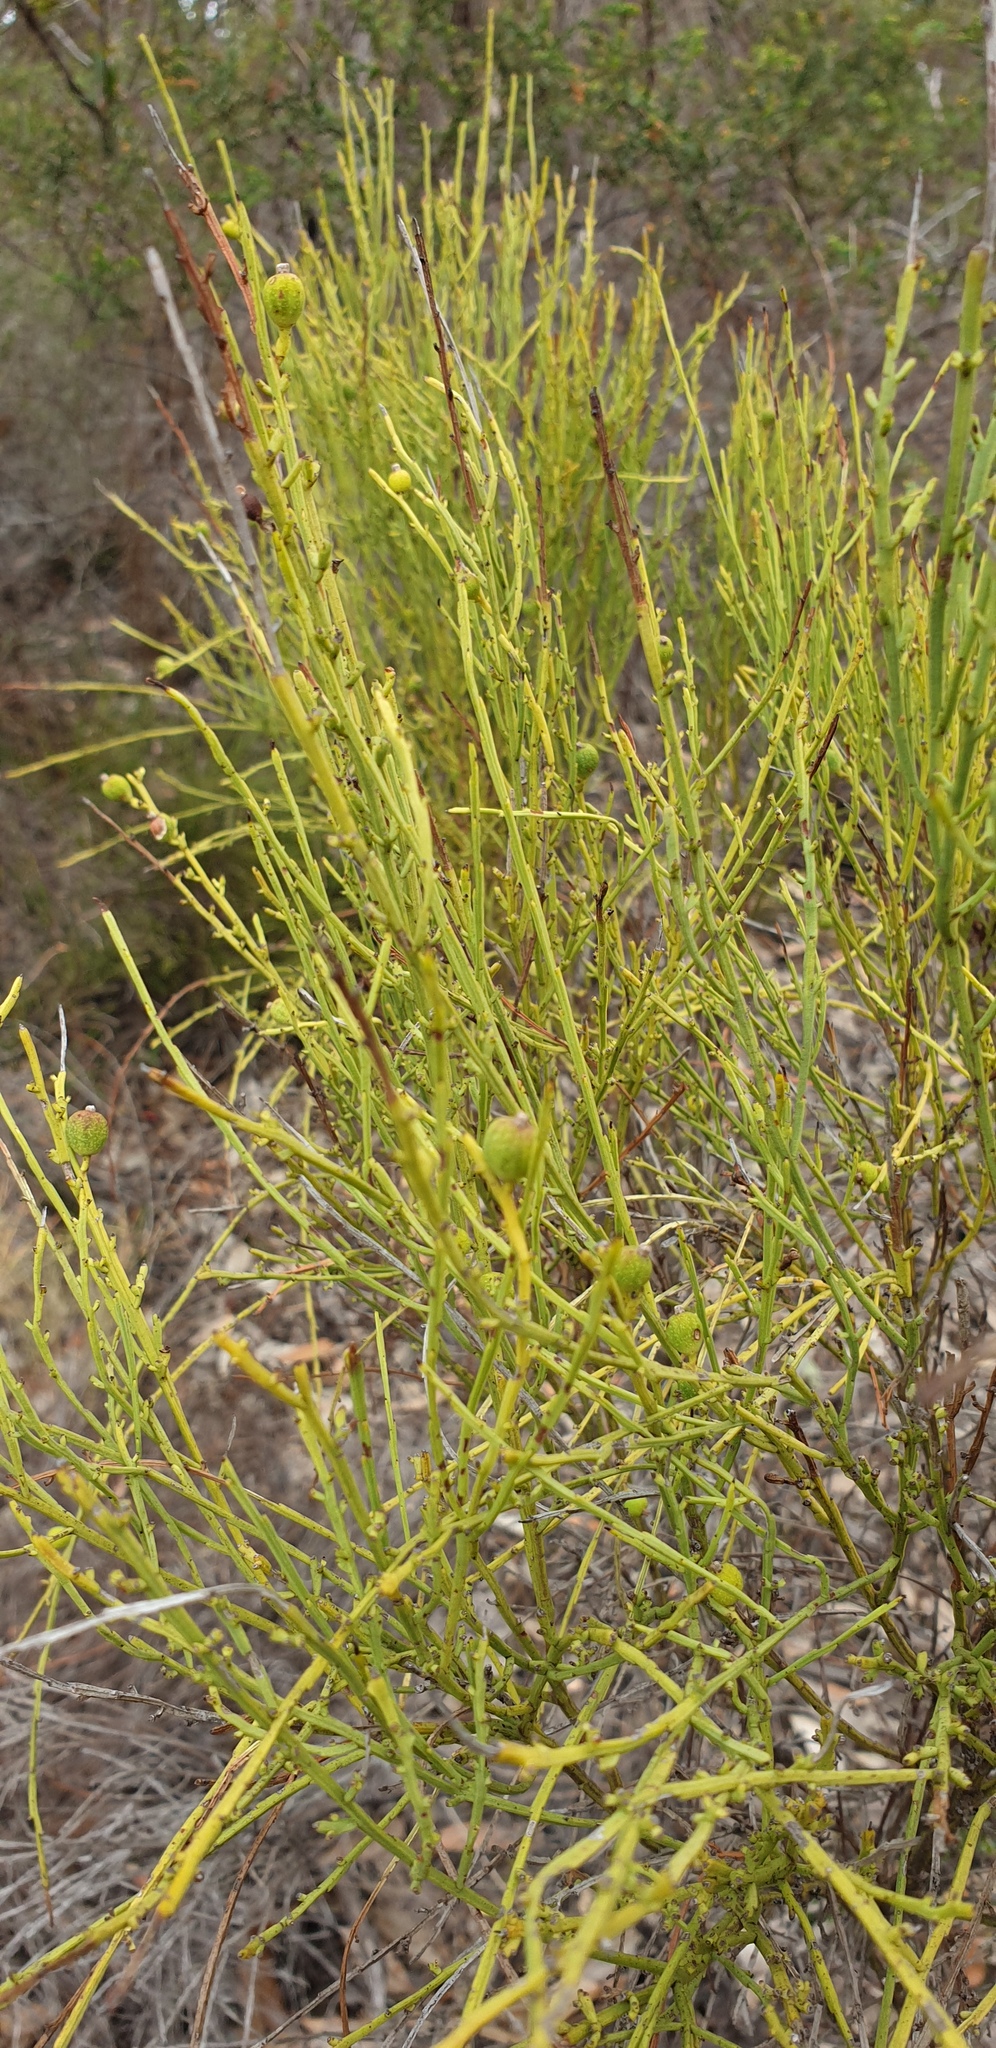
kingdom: Plantae
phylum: Tracheophyta
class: Magnoliopsida
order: Santalales
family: Amphorogynaceae
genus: Choretrum
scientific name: Choretrum glomeratum
